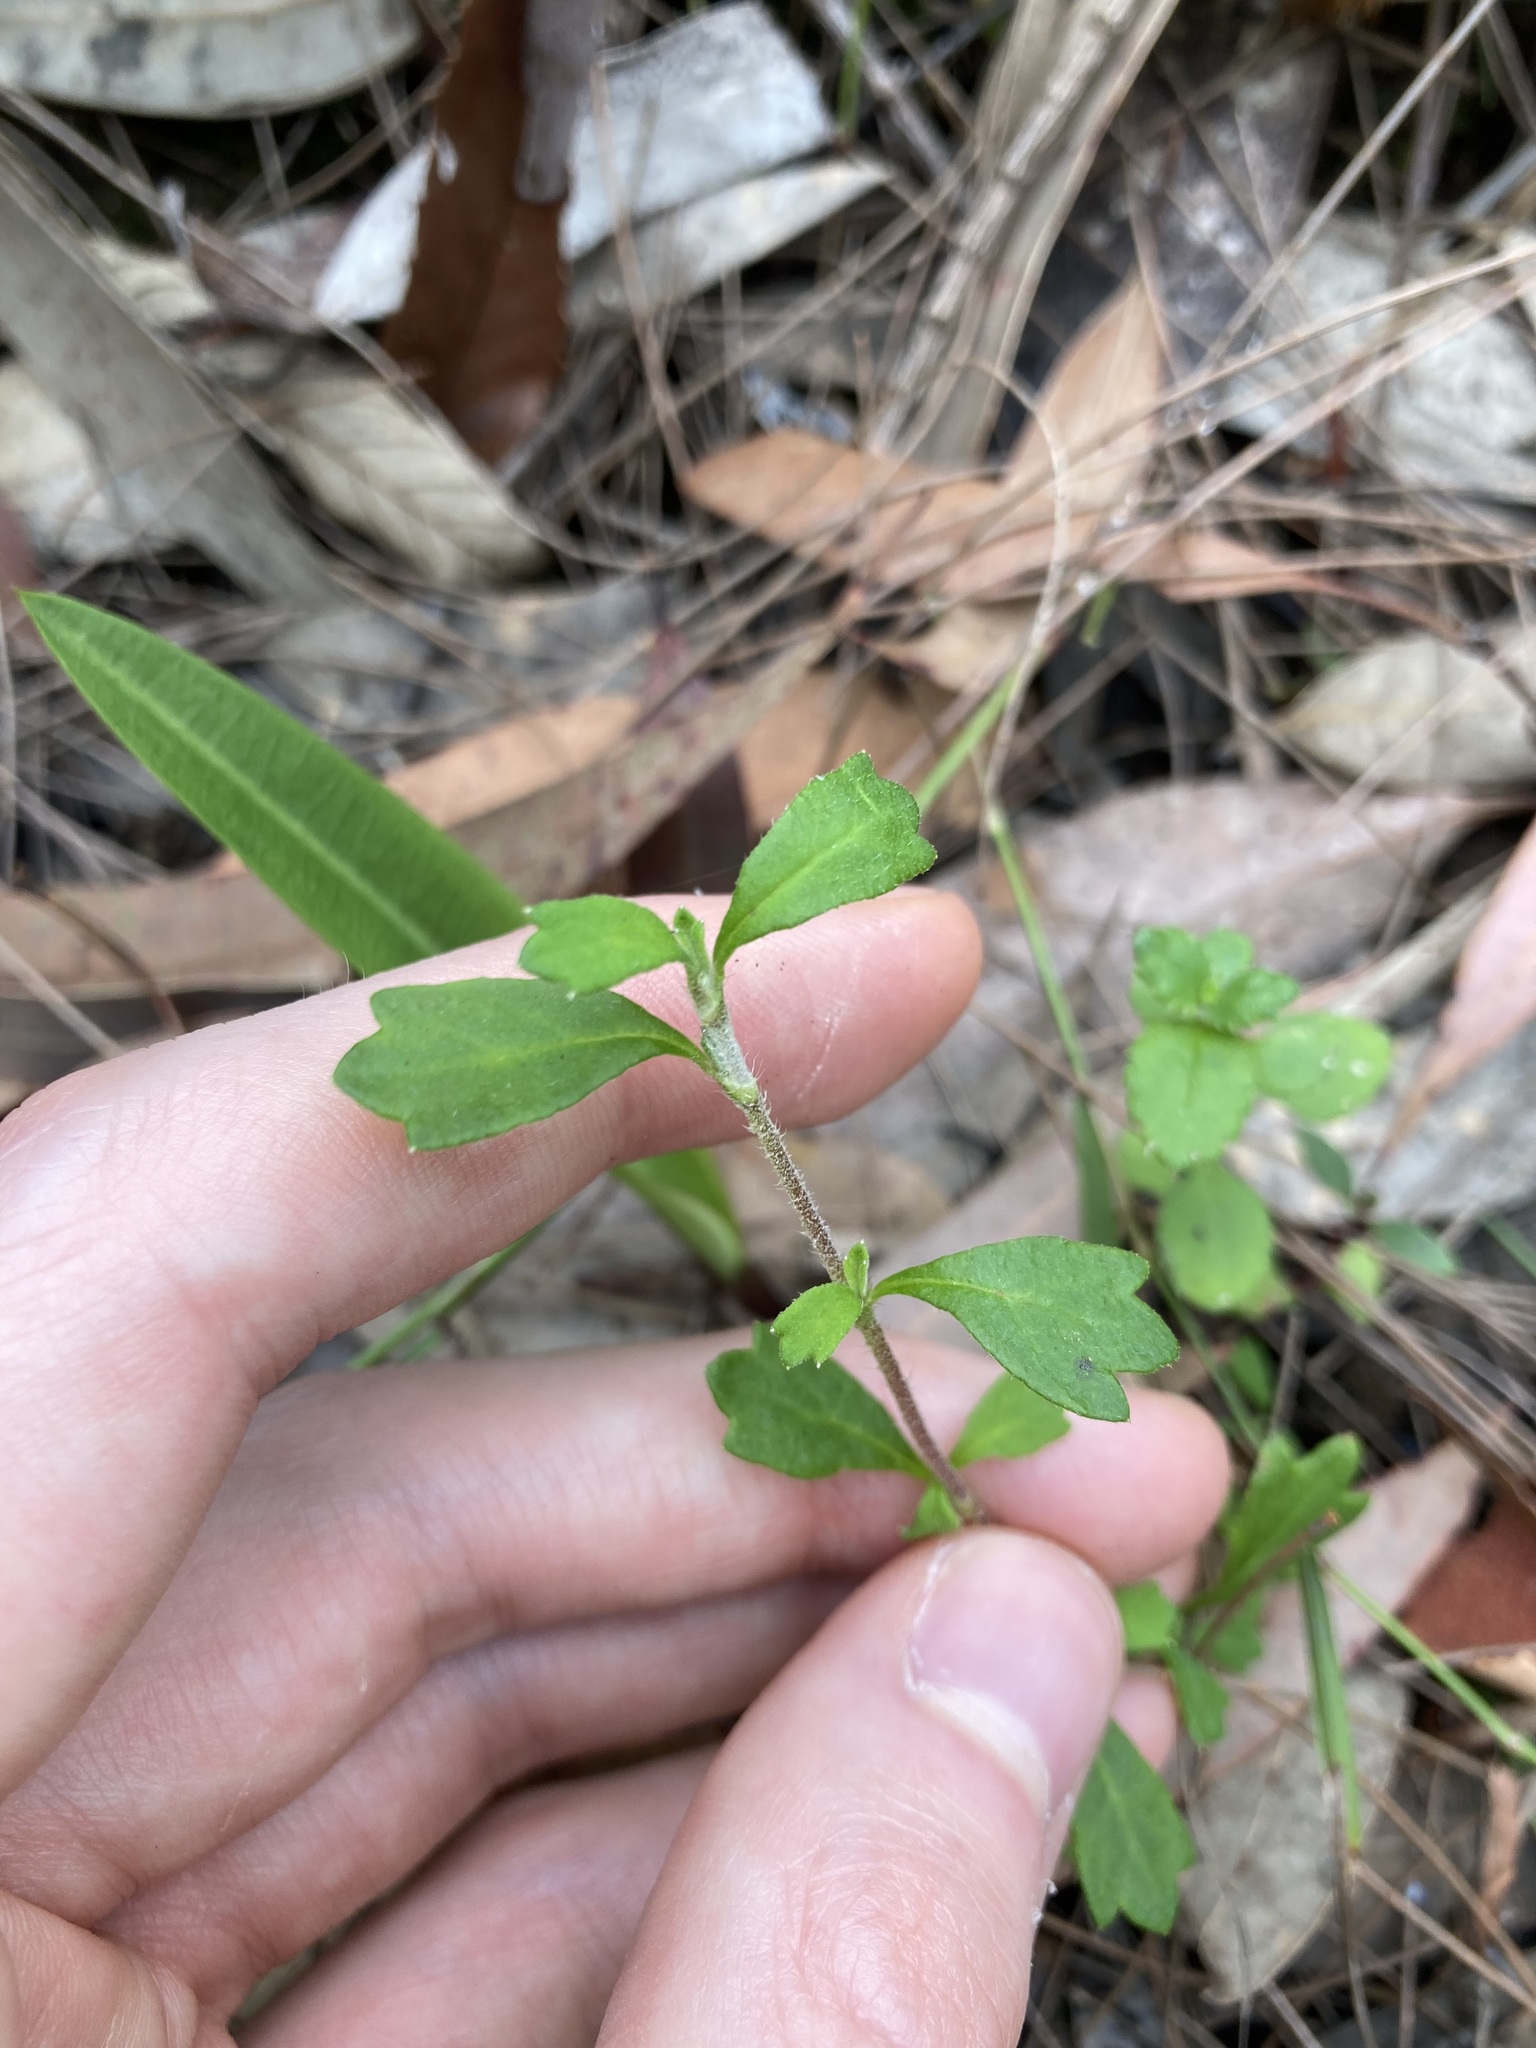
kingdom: Plantae
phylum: Tracheophyta
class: Magnoliopsida
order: Apiales
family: Apiaceae
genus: Xanthosia
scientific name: Xanthosia tridentata
